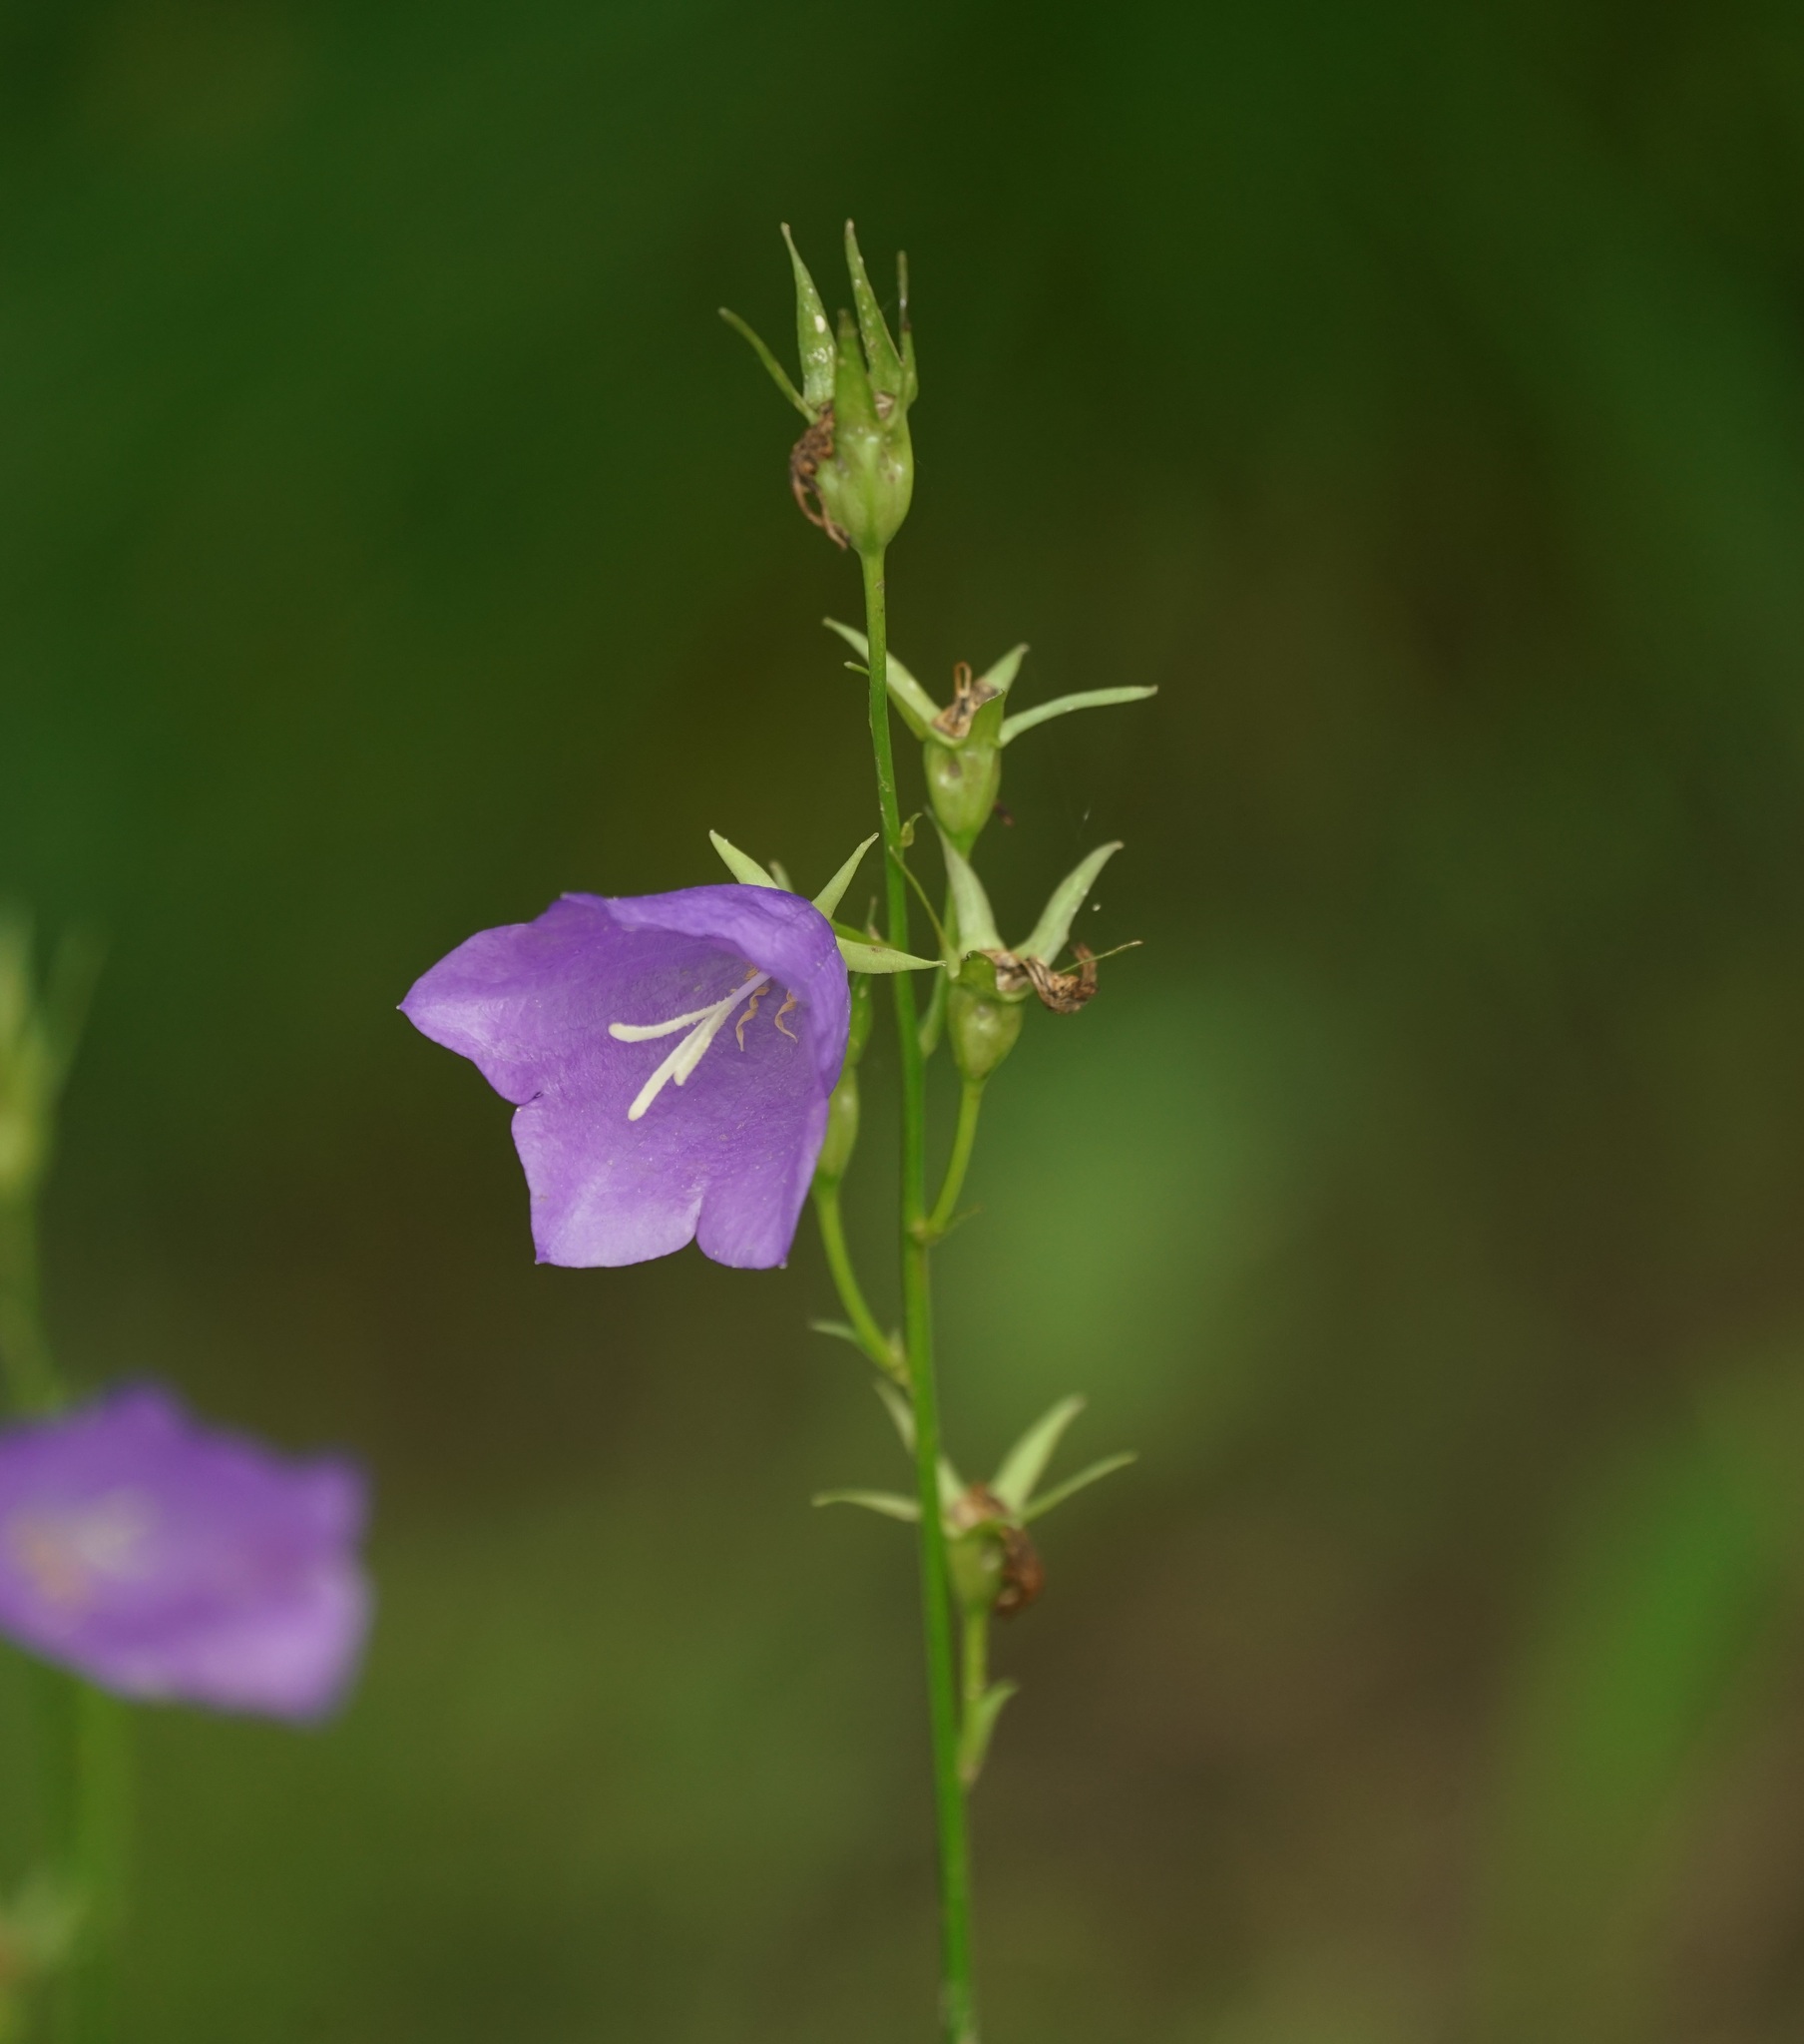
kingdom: Plantae
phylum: Tracheophyta
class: Magnoliopsida
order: Asterales
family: Campanulaceae
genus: Campanula
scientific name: Campanula persicifolia
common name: Peach-leaved bellflower
